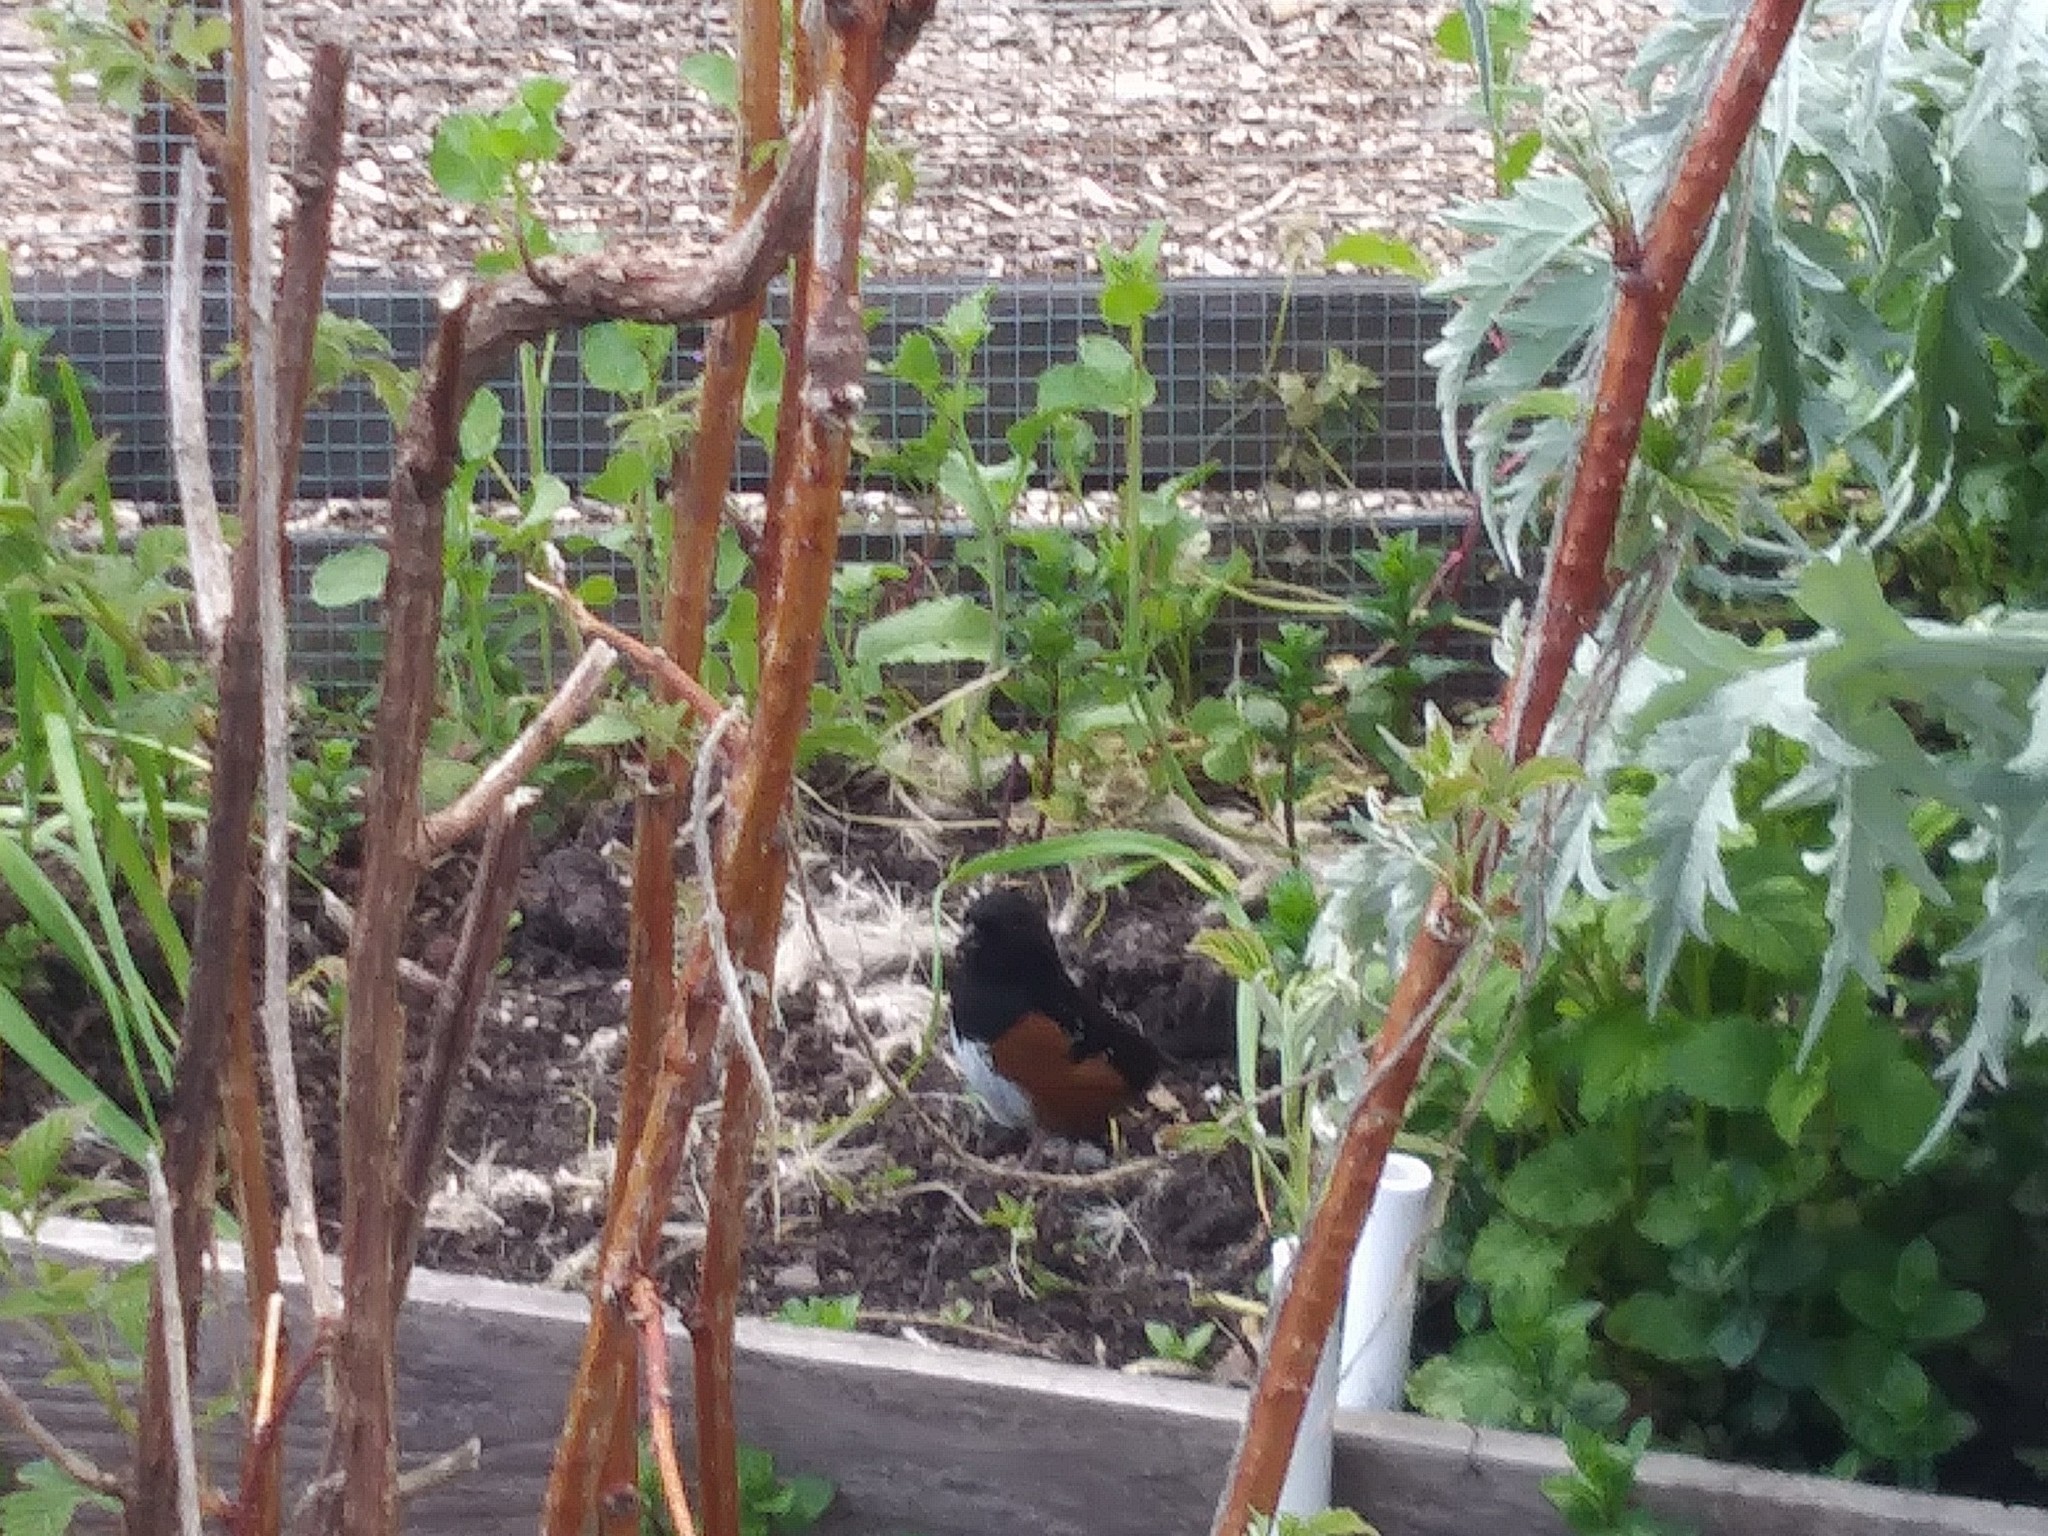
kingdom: Animalia
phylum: Chordata
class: Aves
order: Passeriformes
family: Passerellidae
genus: Pipilo
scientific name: Pipilo maculatus
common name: Spotted towhee
